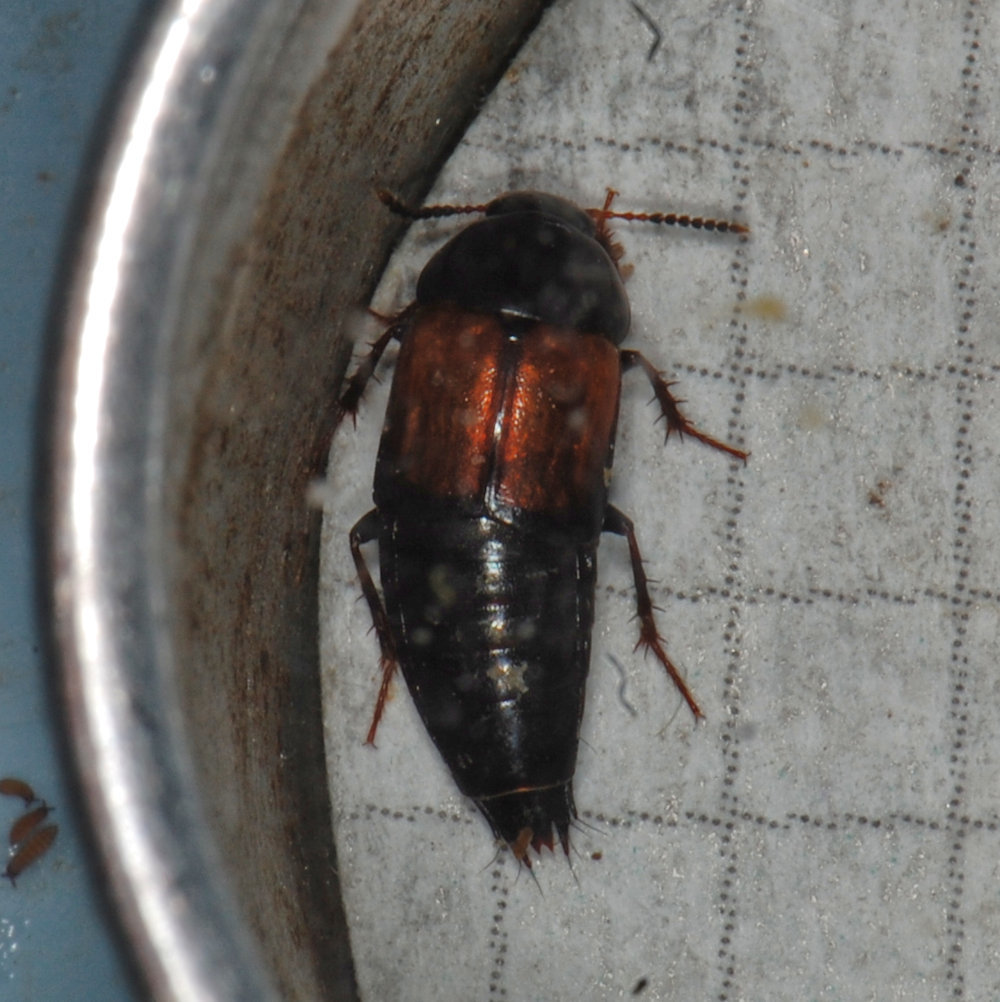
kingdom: Animalia
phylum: Arthropoda
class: Insecta
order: Coleoptera
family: Staphylinidae
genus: Tachinus
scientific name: Tachinus fimbriatus
